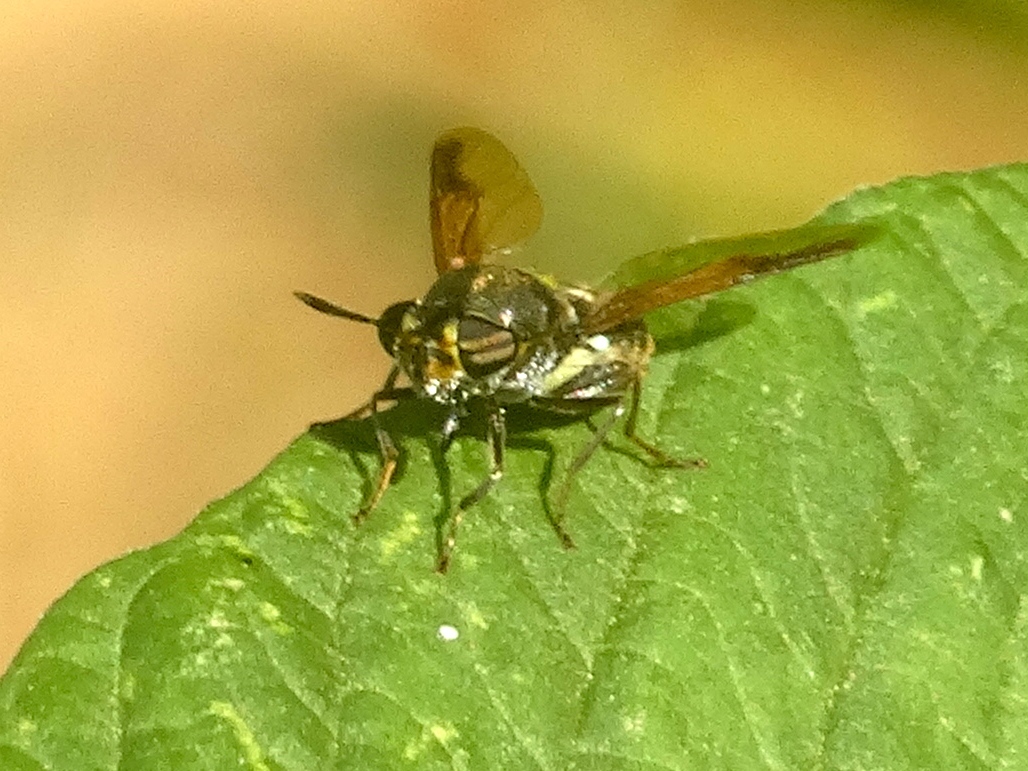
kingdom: Animalia
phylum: Arthropoda
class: Insecta
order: Diptera
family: Stratiomyidae
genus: Hoplitimyia
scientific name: Hoplitimyia
